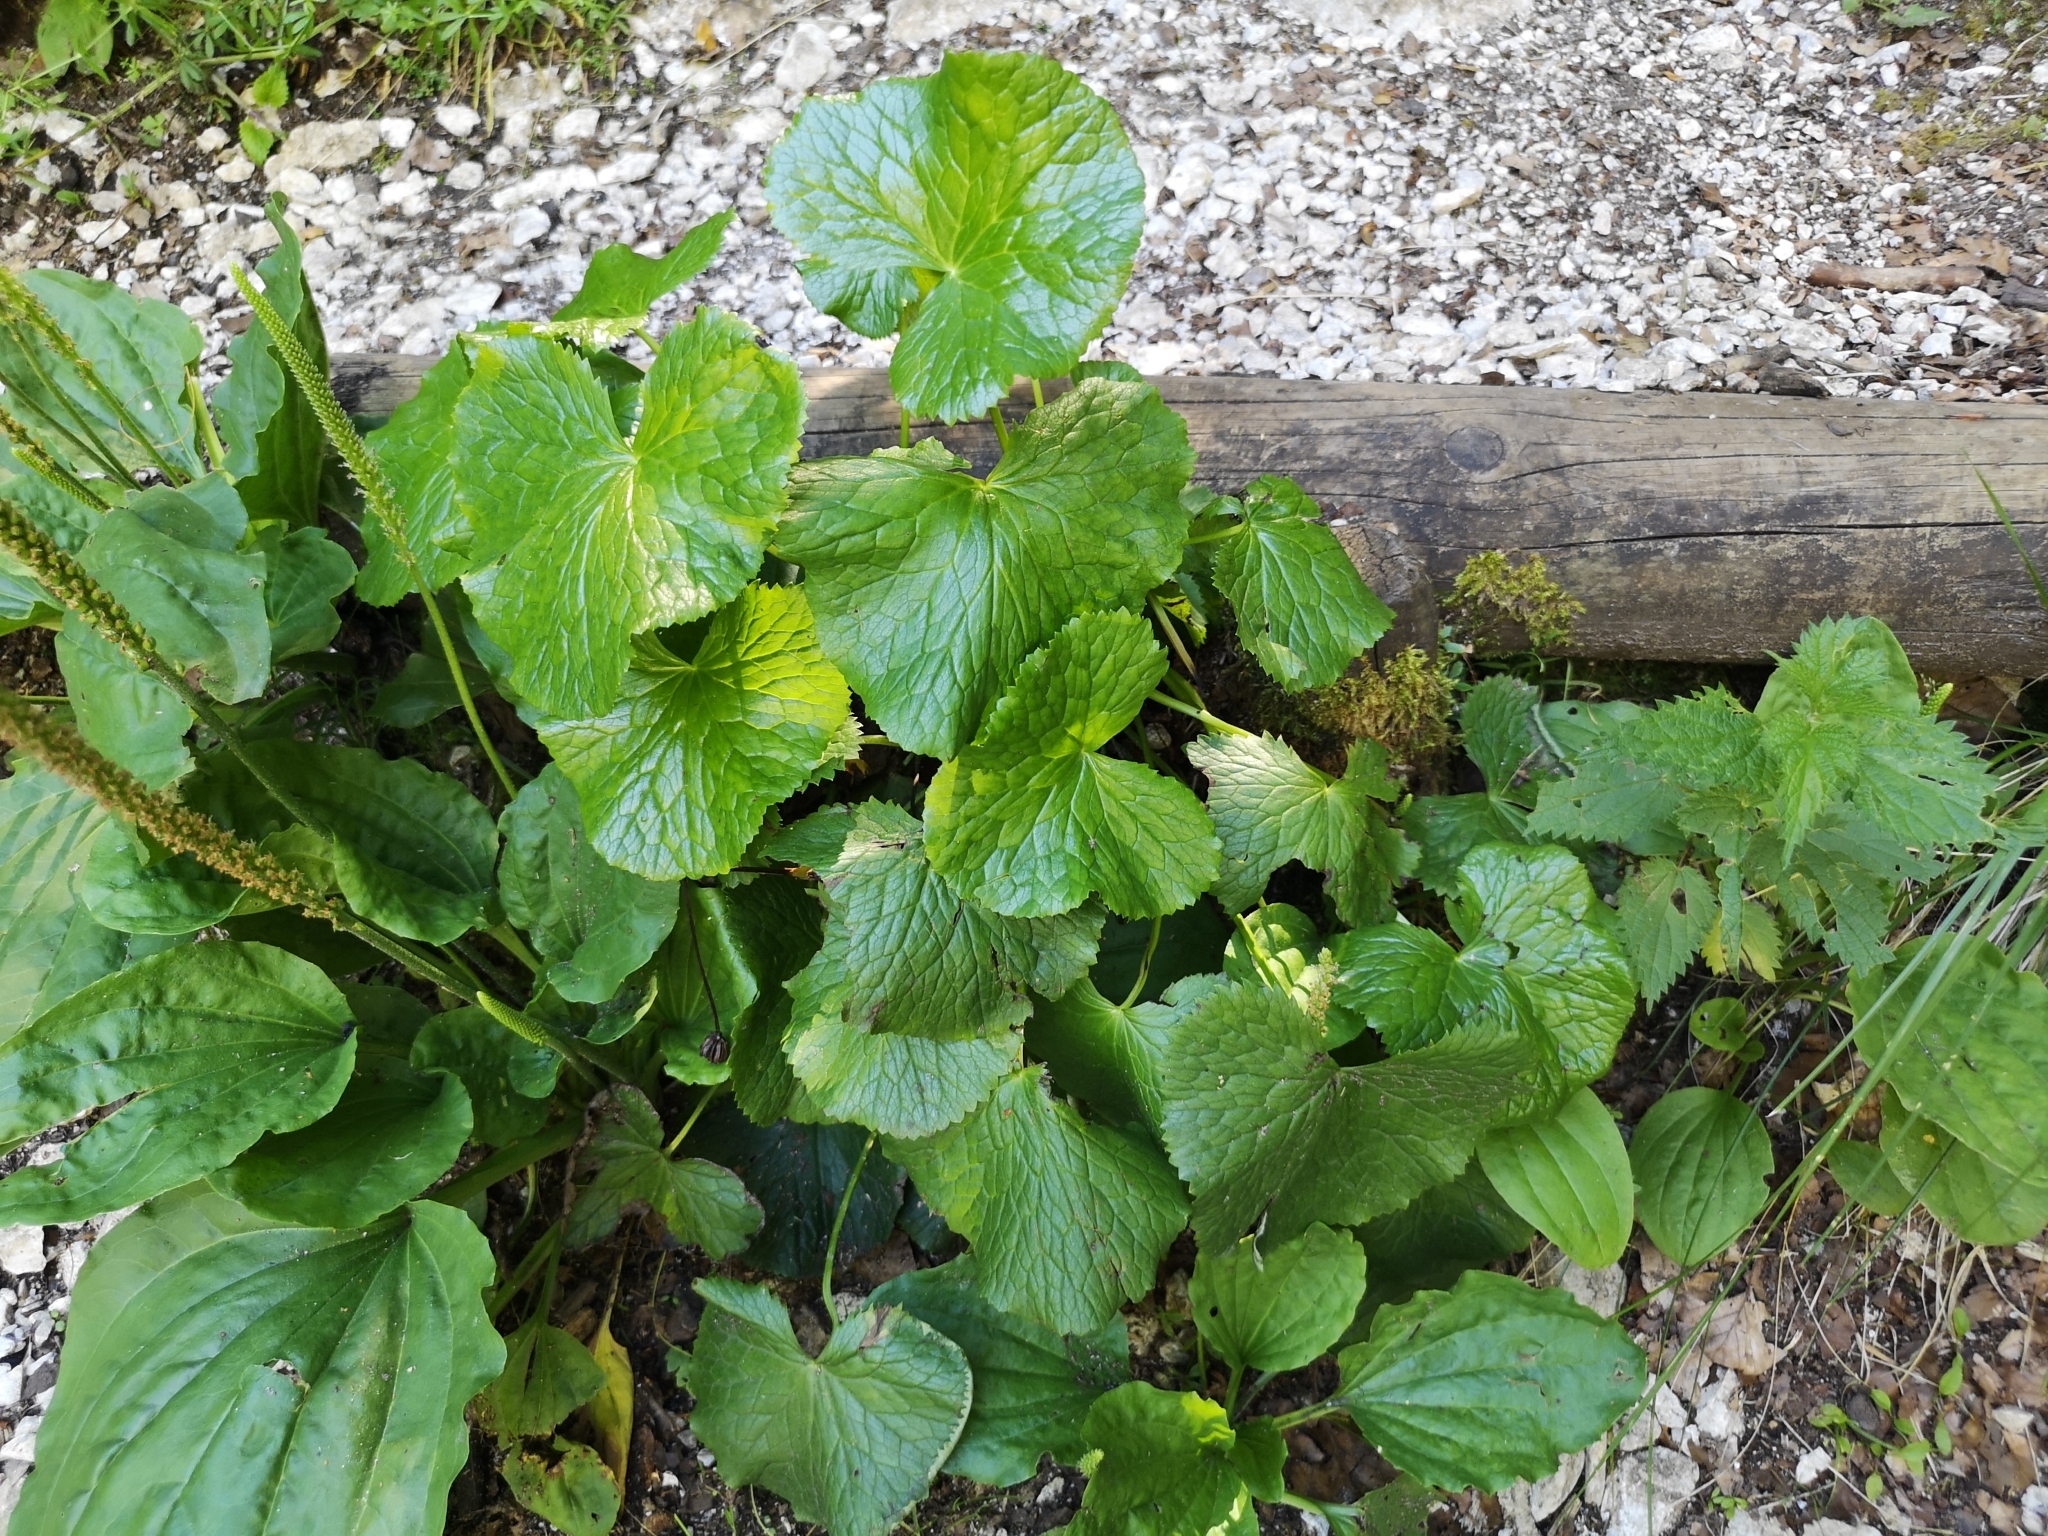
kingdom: Plantae
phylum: Tracheophyta
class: Magnoliopsida
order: Ranunculales
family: Ranunculaceae
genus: Caltha
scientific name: Caltha palustris
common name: Marsh marigold
